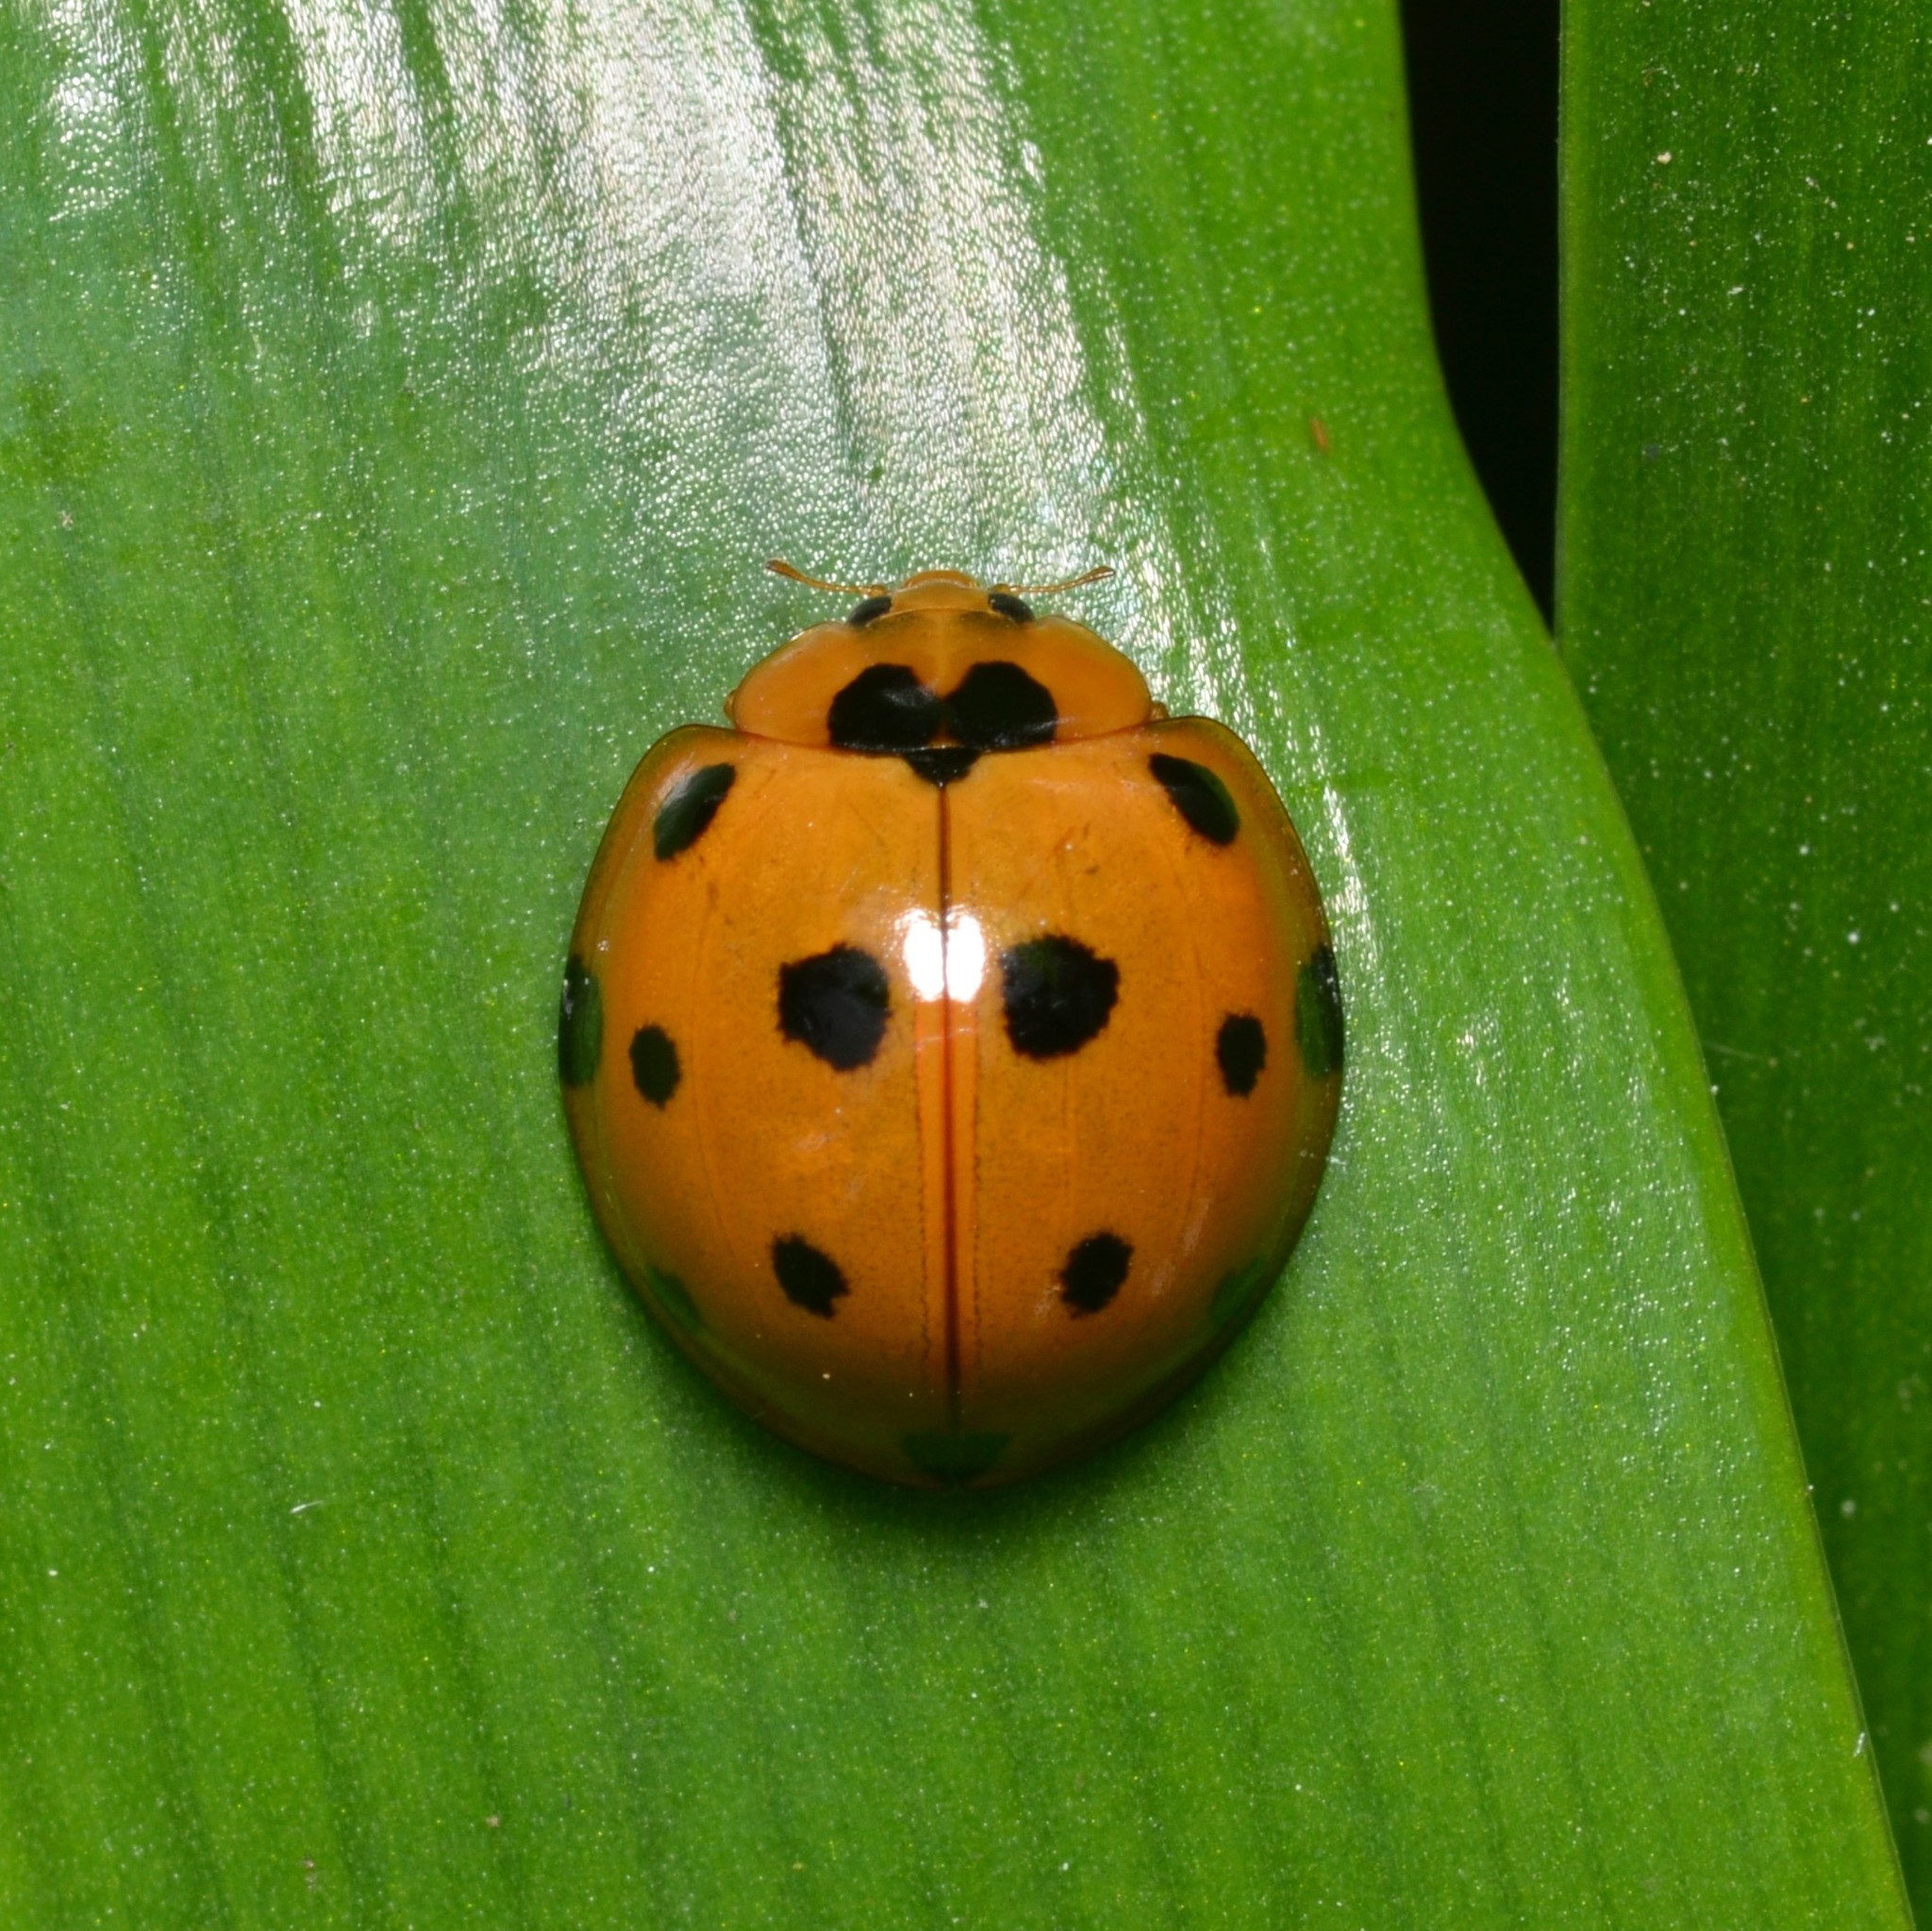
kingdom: Animalia
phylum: Arthropoda
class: Insecta
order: Coleoptera
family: Coccinellidae
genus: Harmonia
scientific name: Harmonia dimidiata
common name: Ladybird beetle
